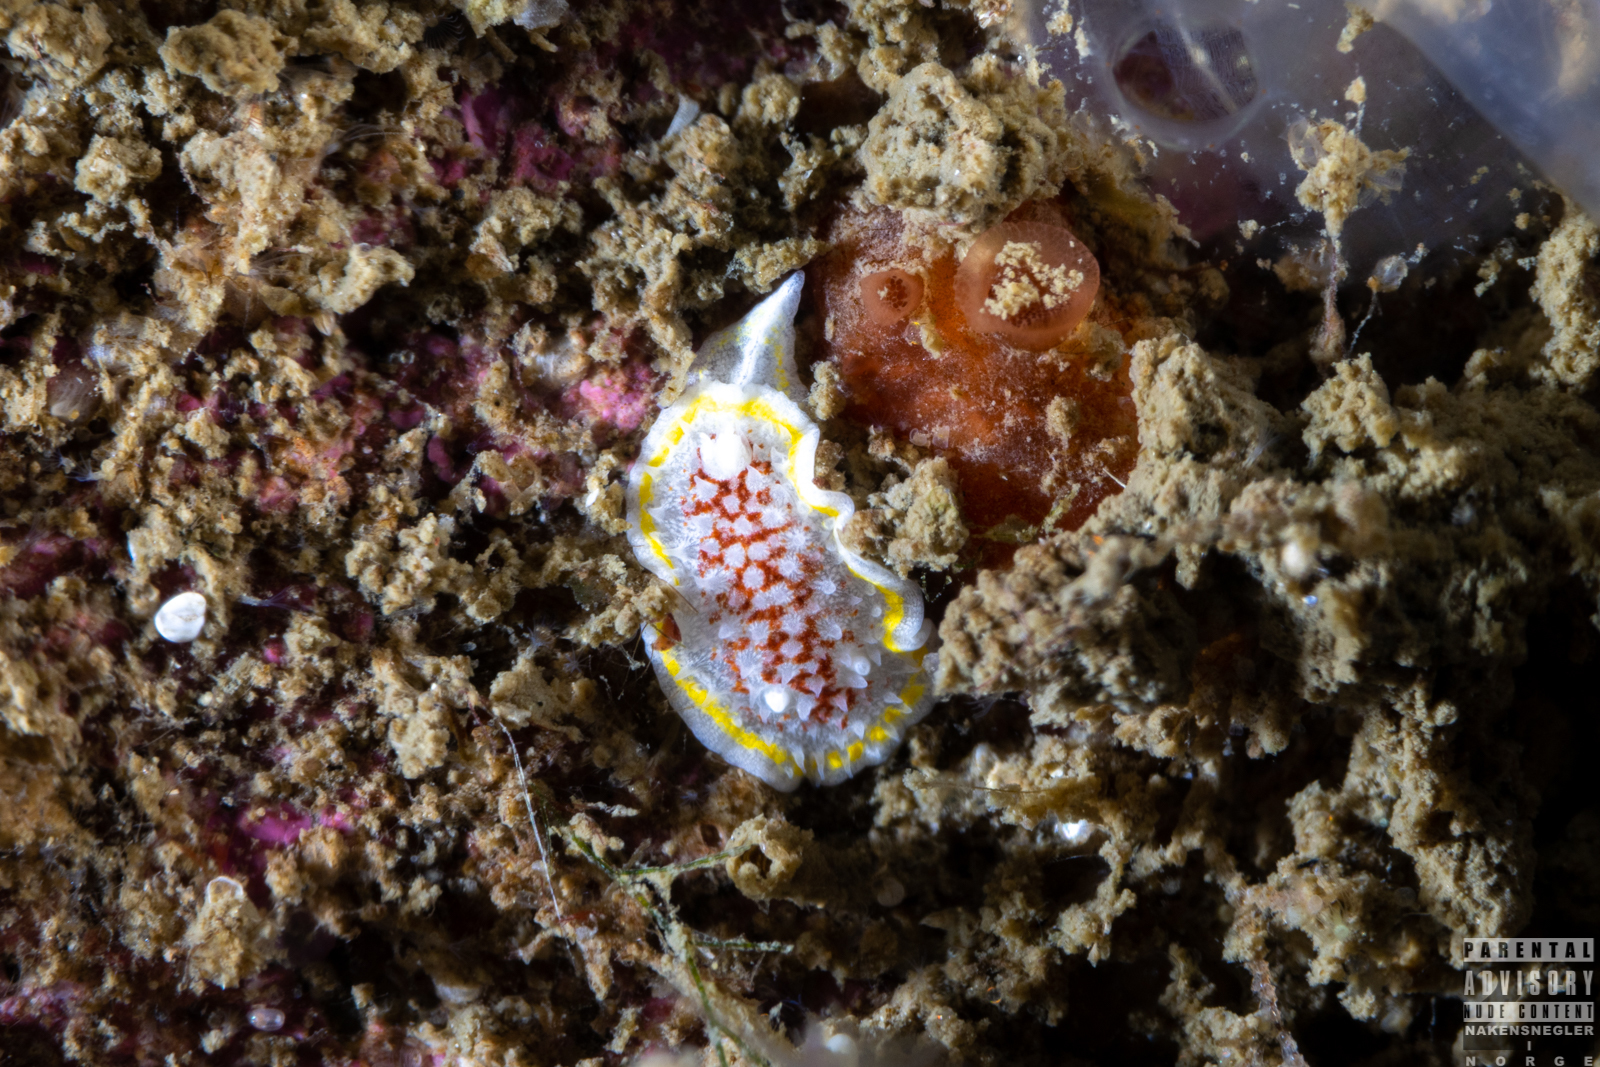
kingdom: Animalia
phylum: Mollusca
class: Gastropoda
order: Nudibranchia
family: Calycidorididae
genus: Diaphorodoris
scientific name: Diaphorodoris luteocincta
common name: Fried egg nudibranch
